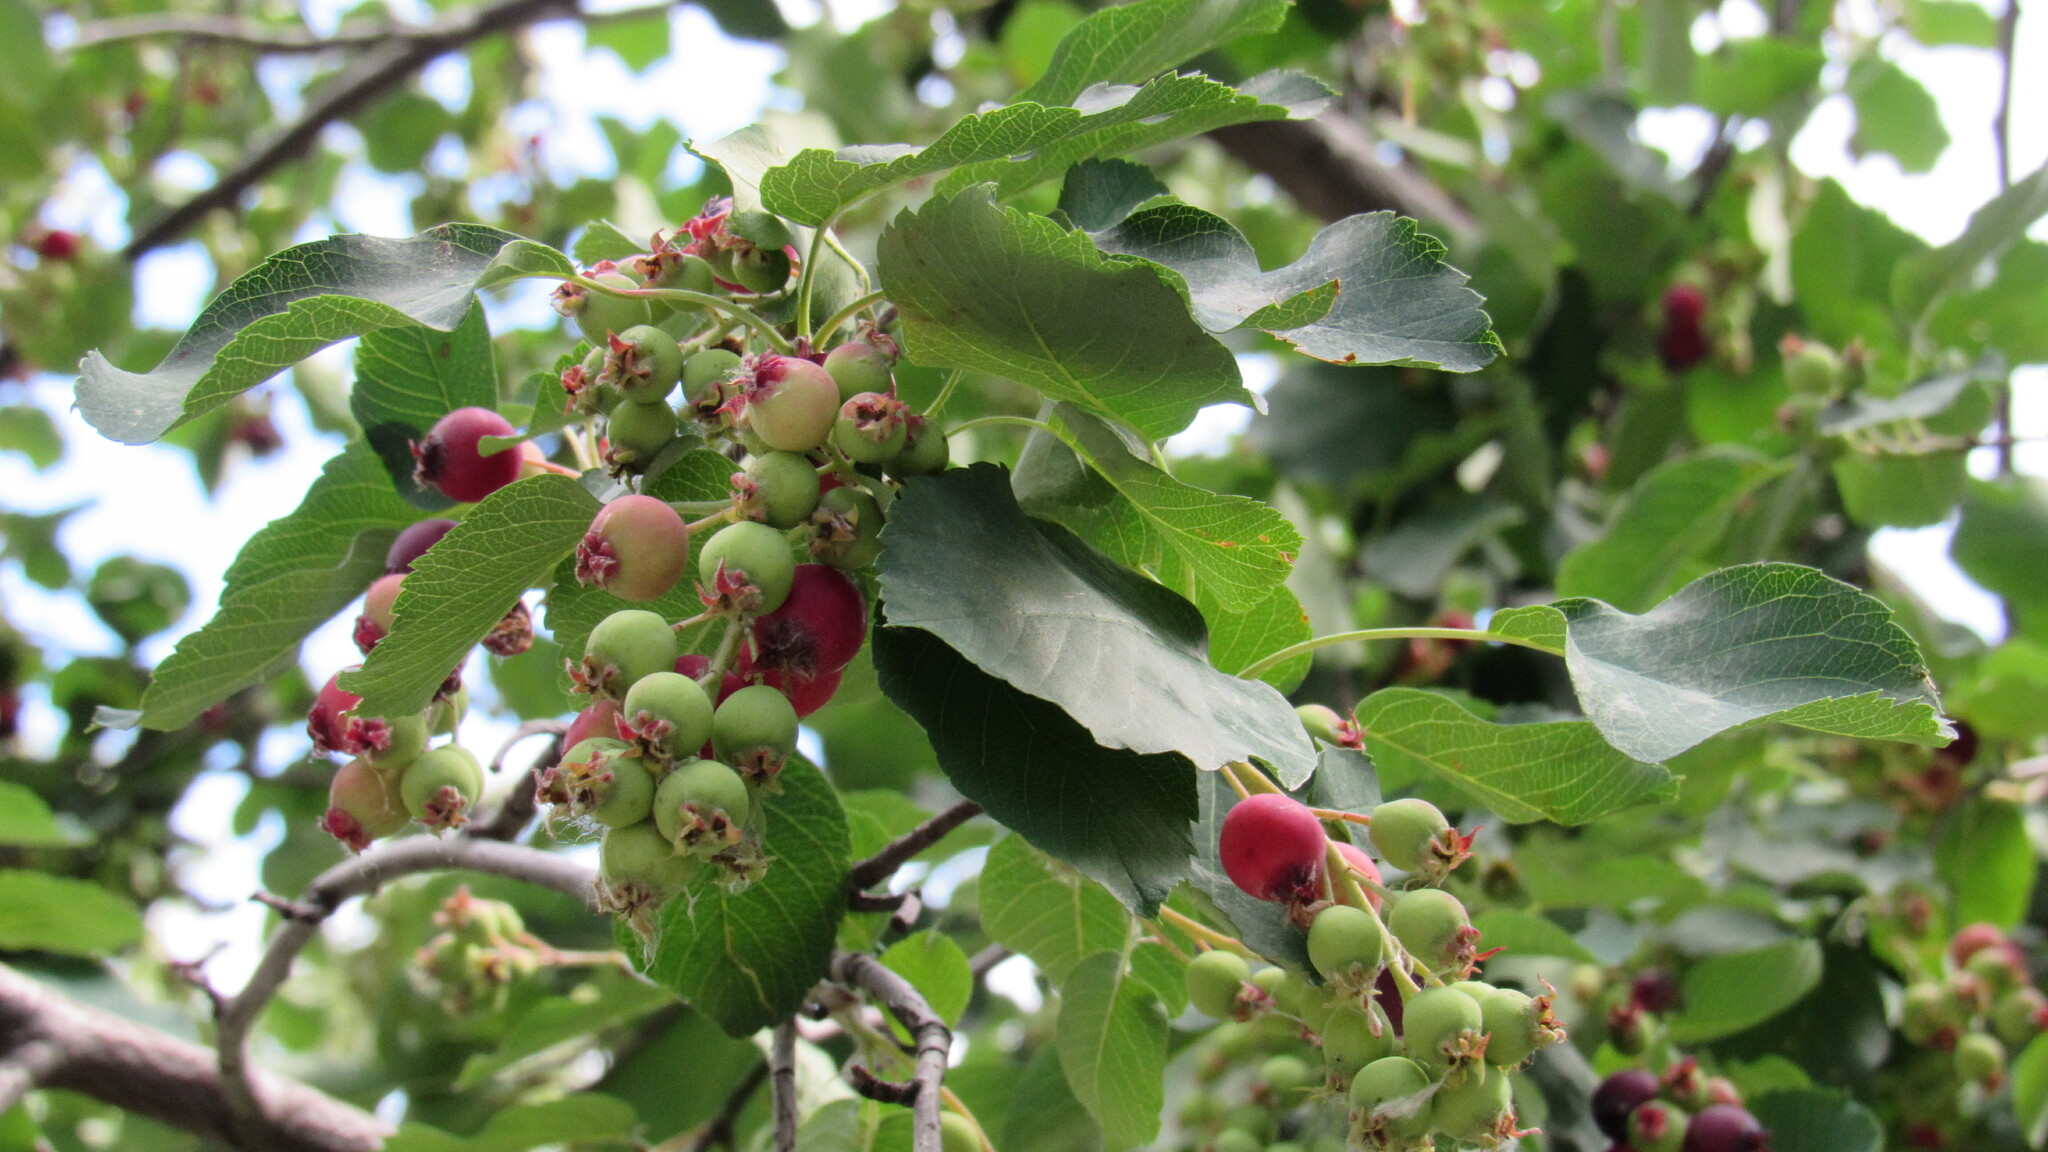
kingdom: Plantae
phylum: Tracheophyta
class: Magnoliopsida
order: Rosales
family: Rosaceae
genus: Amelanchier
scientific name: Amelanchier alnifolia
